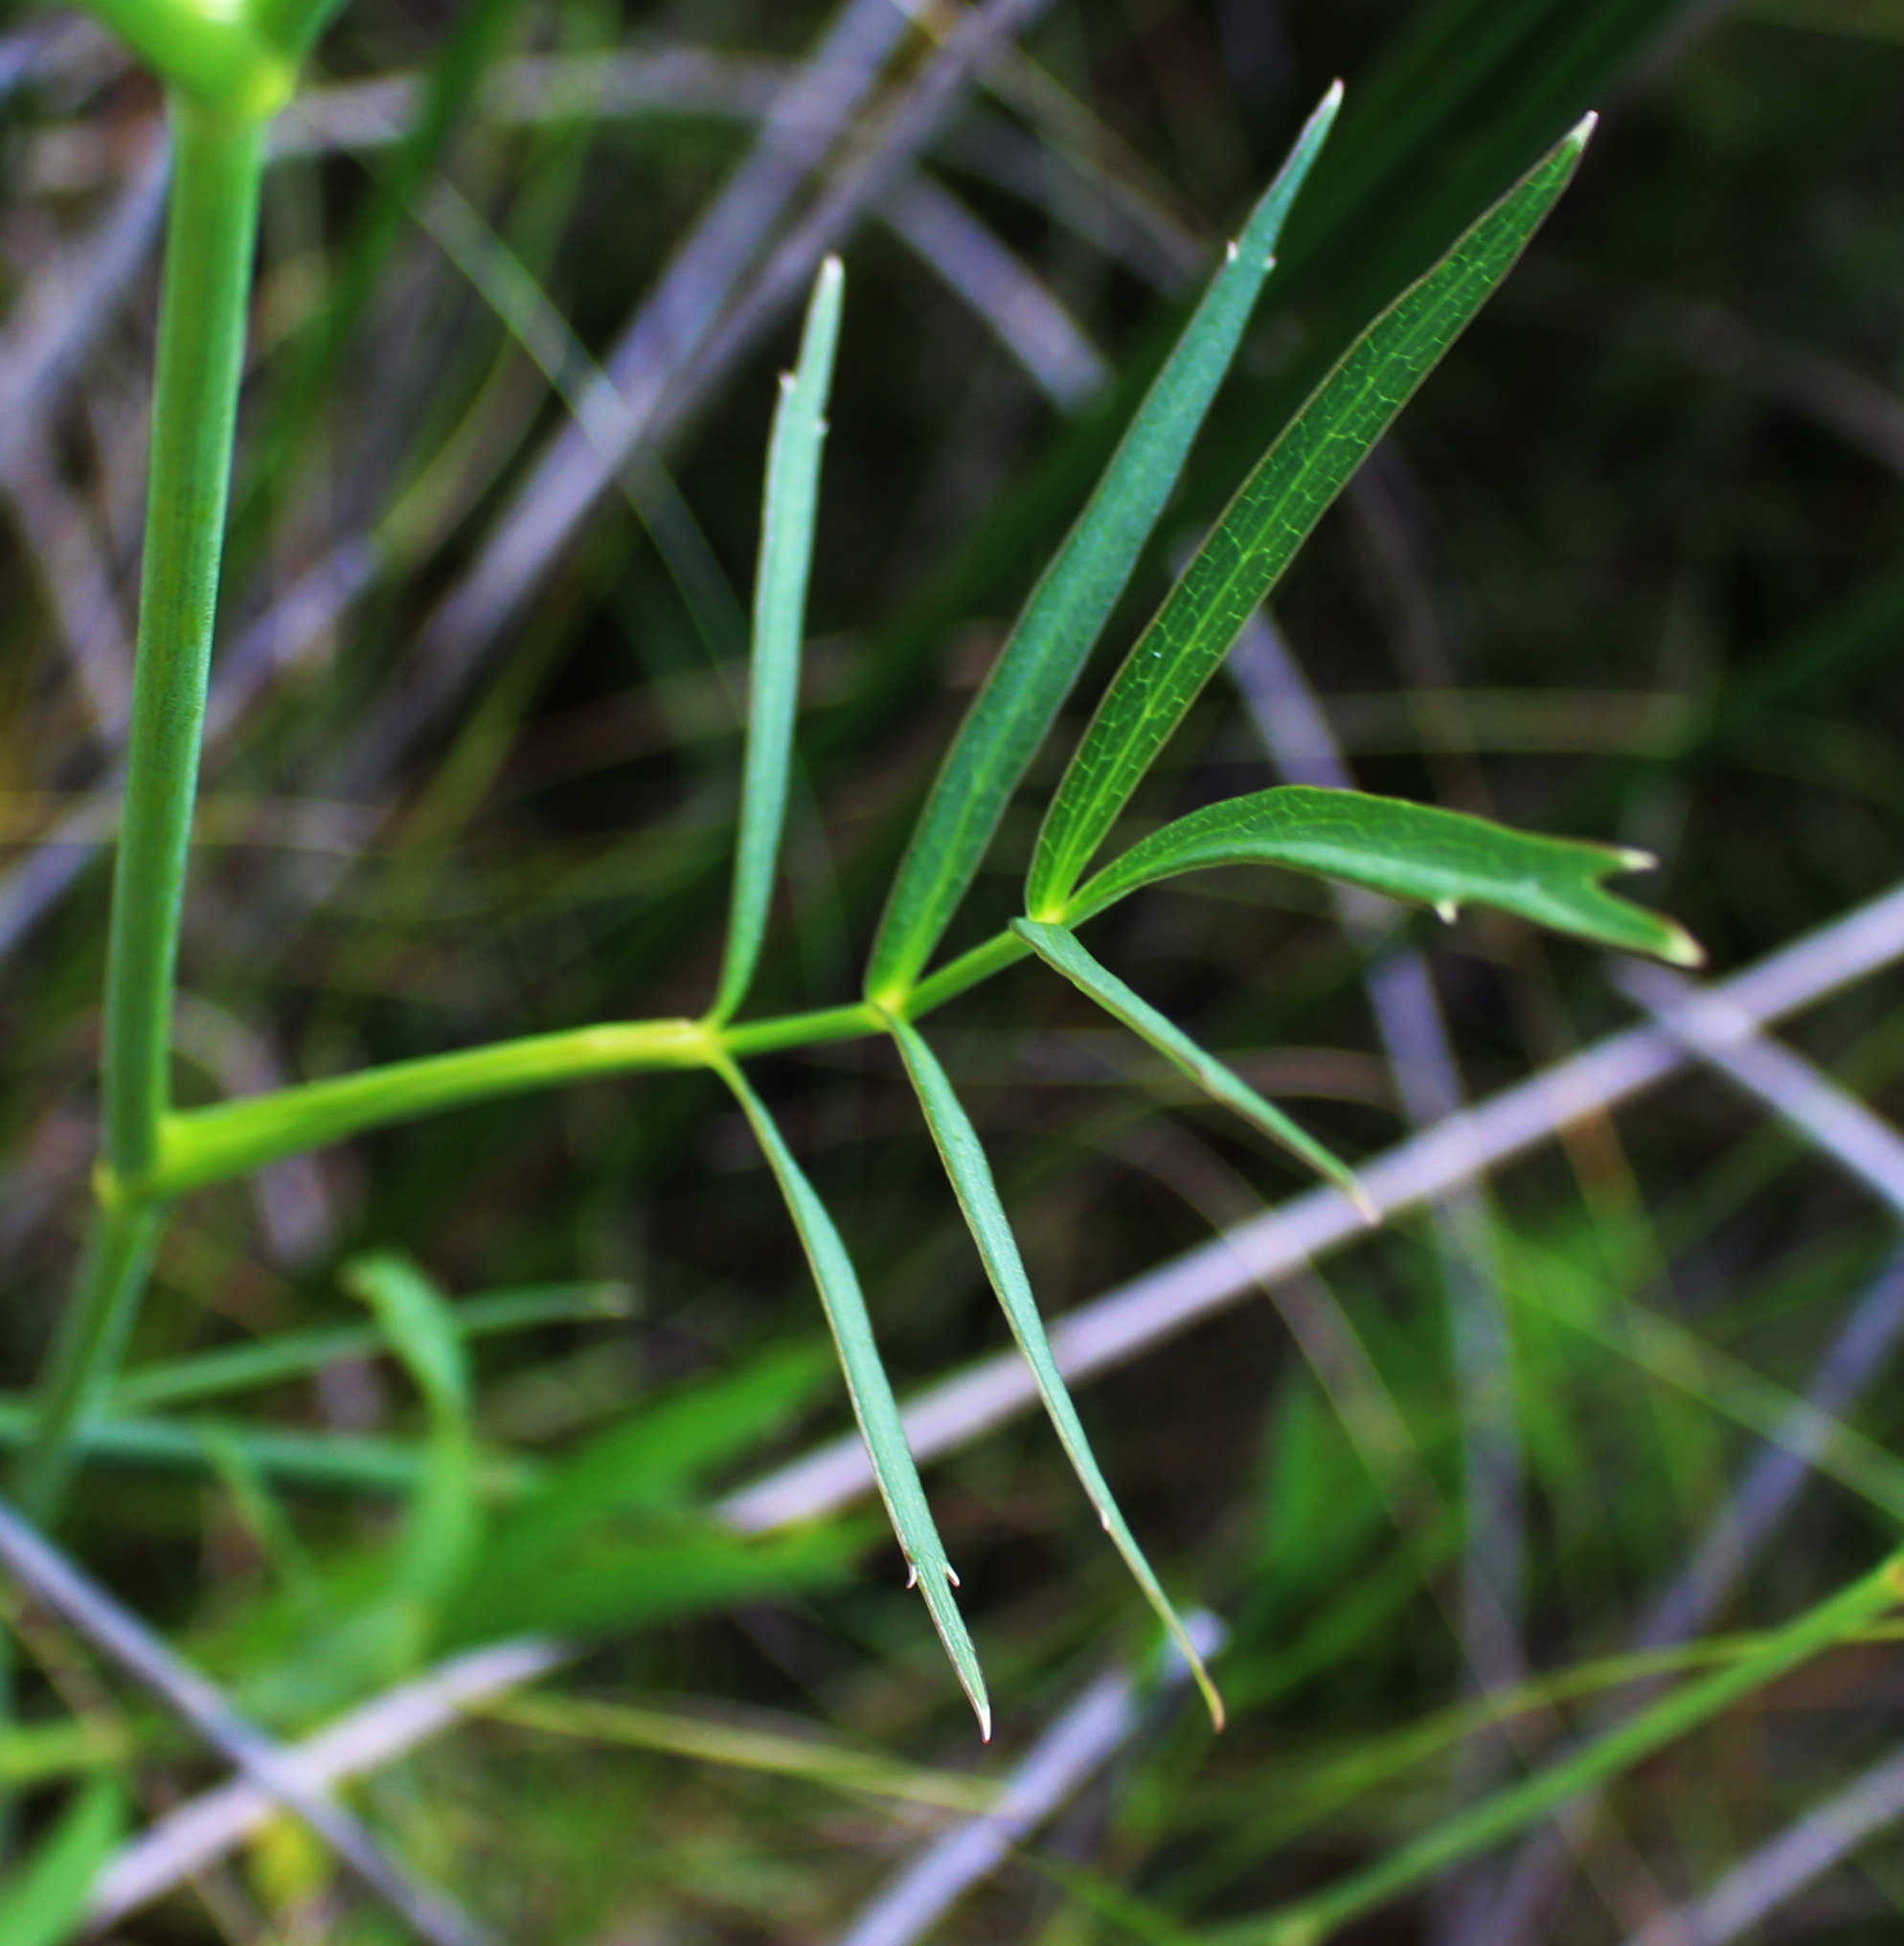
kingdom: Plantae
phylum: Tracheophyta
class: Magnoliopsida
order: Apiales
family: Apiaceae
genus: Oxypolis
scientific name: Oxypolis rigidior
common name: Cowbane
